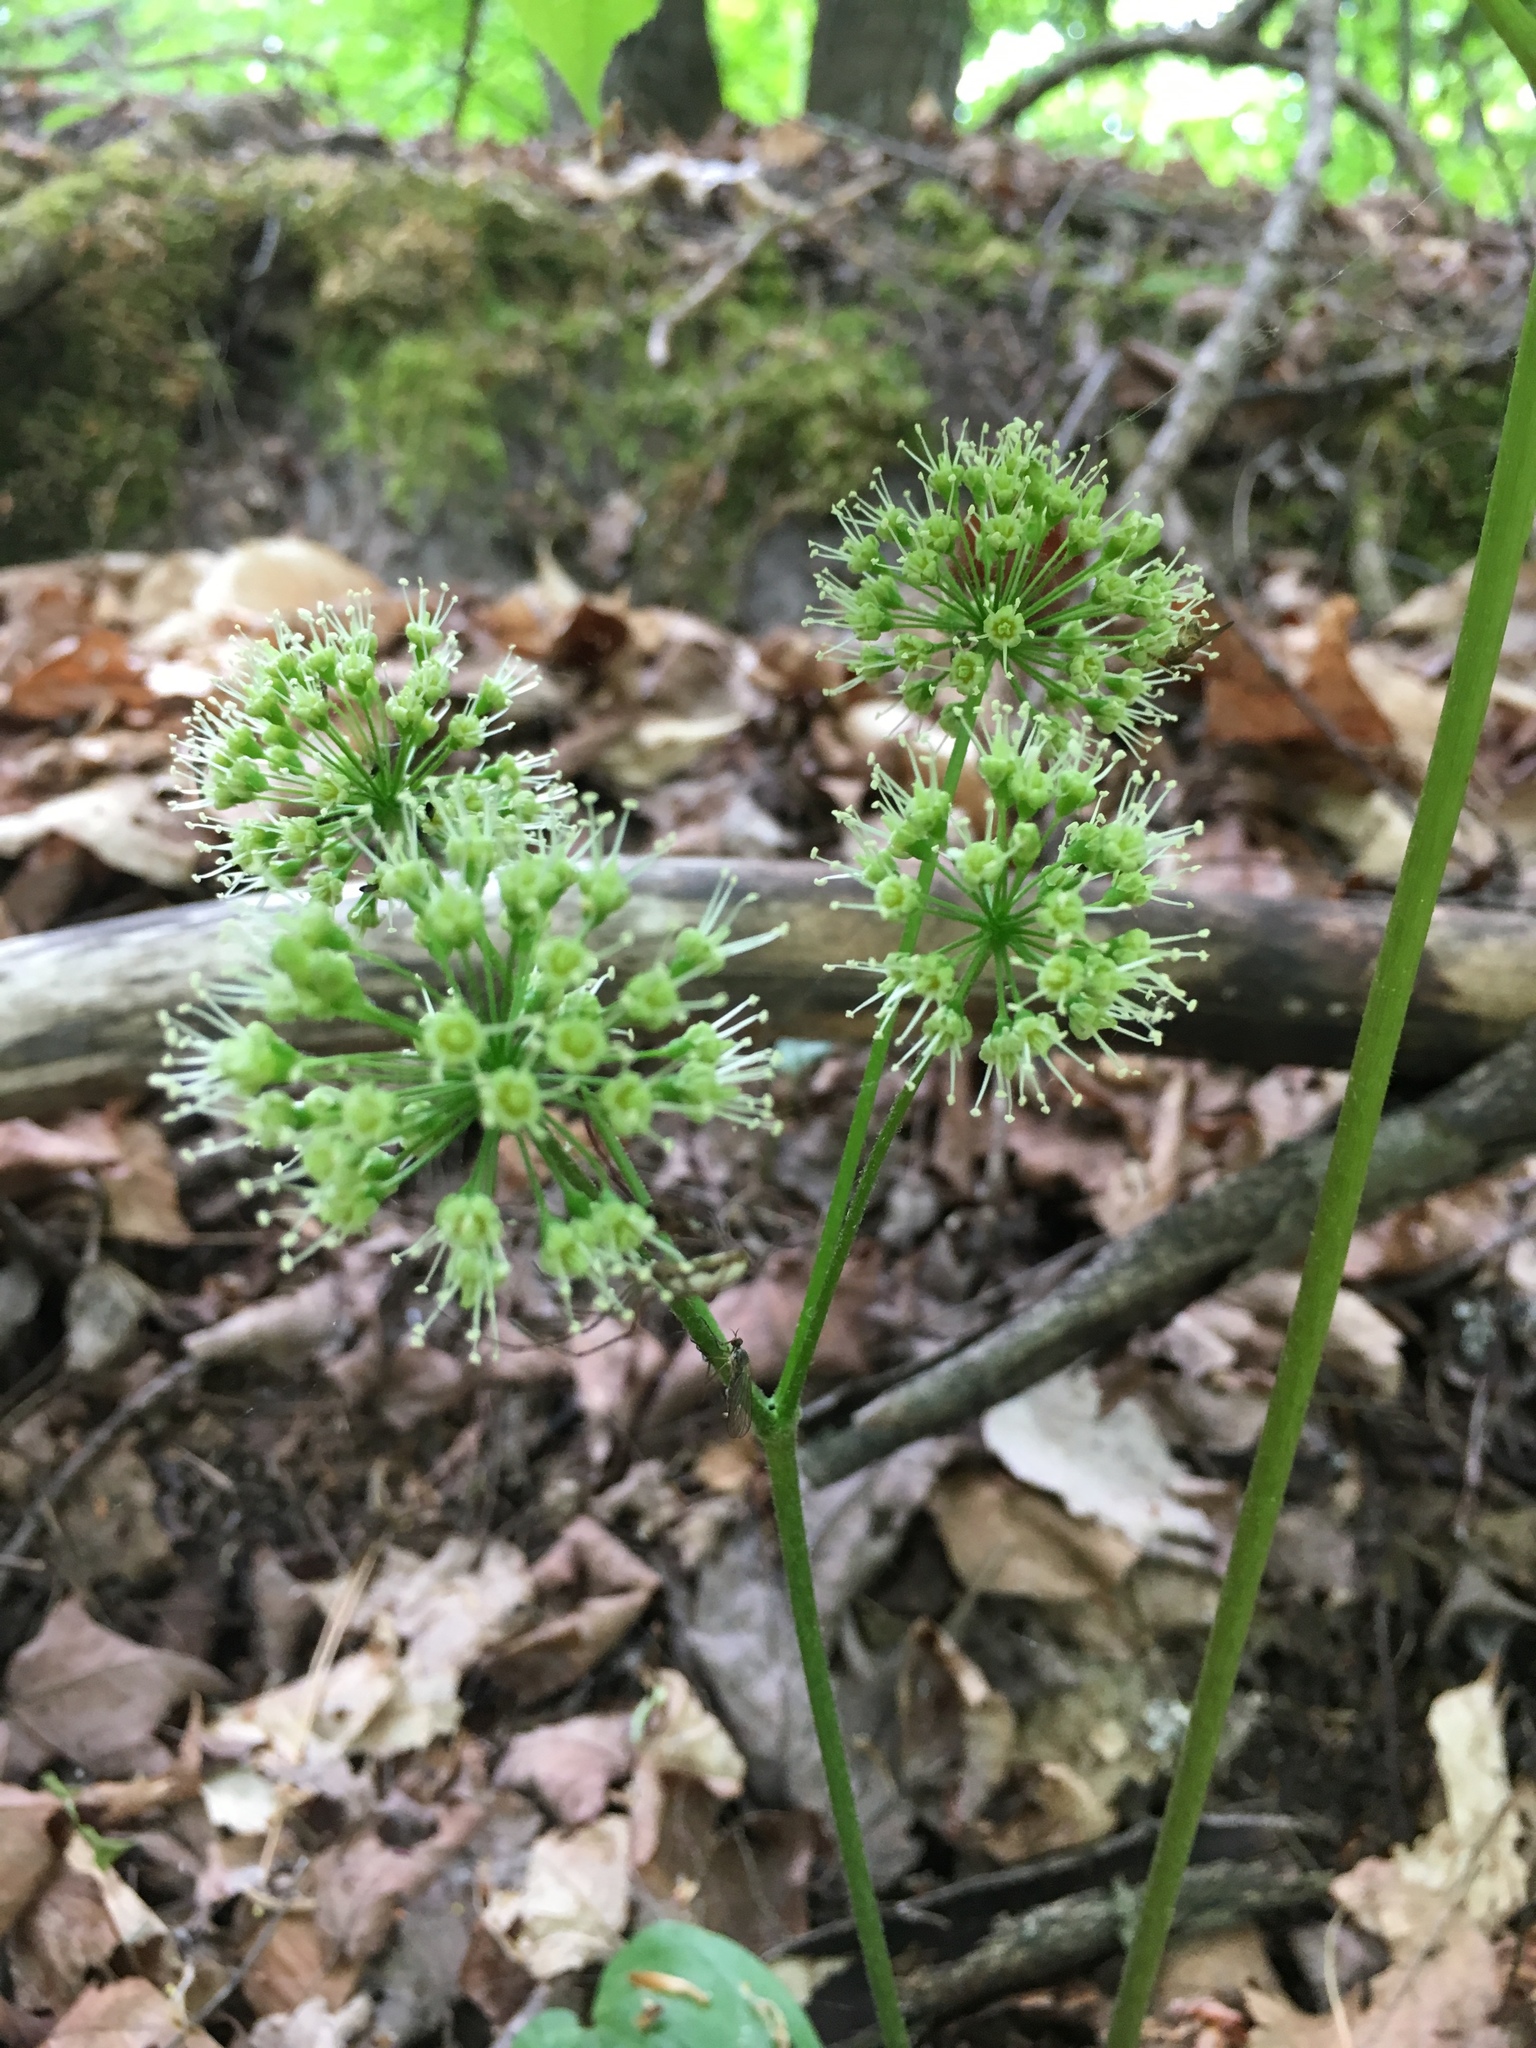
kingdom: Plantae
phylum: Tracheophyta
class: Magnoliopsida
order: Apiales
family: Araliaceae
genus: Aralia
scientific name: Aralia nudicaulis
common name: Wild sarsaparilla
